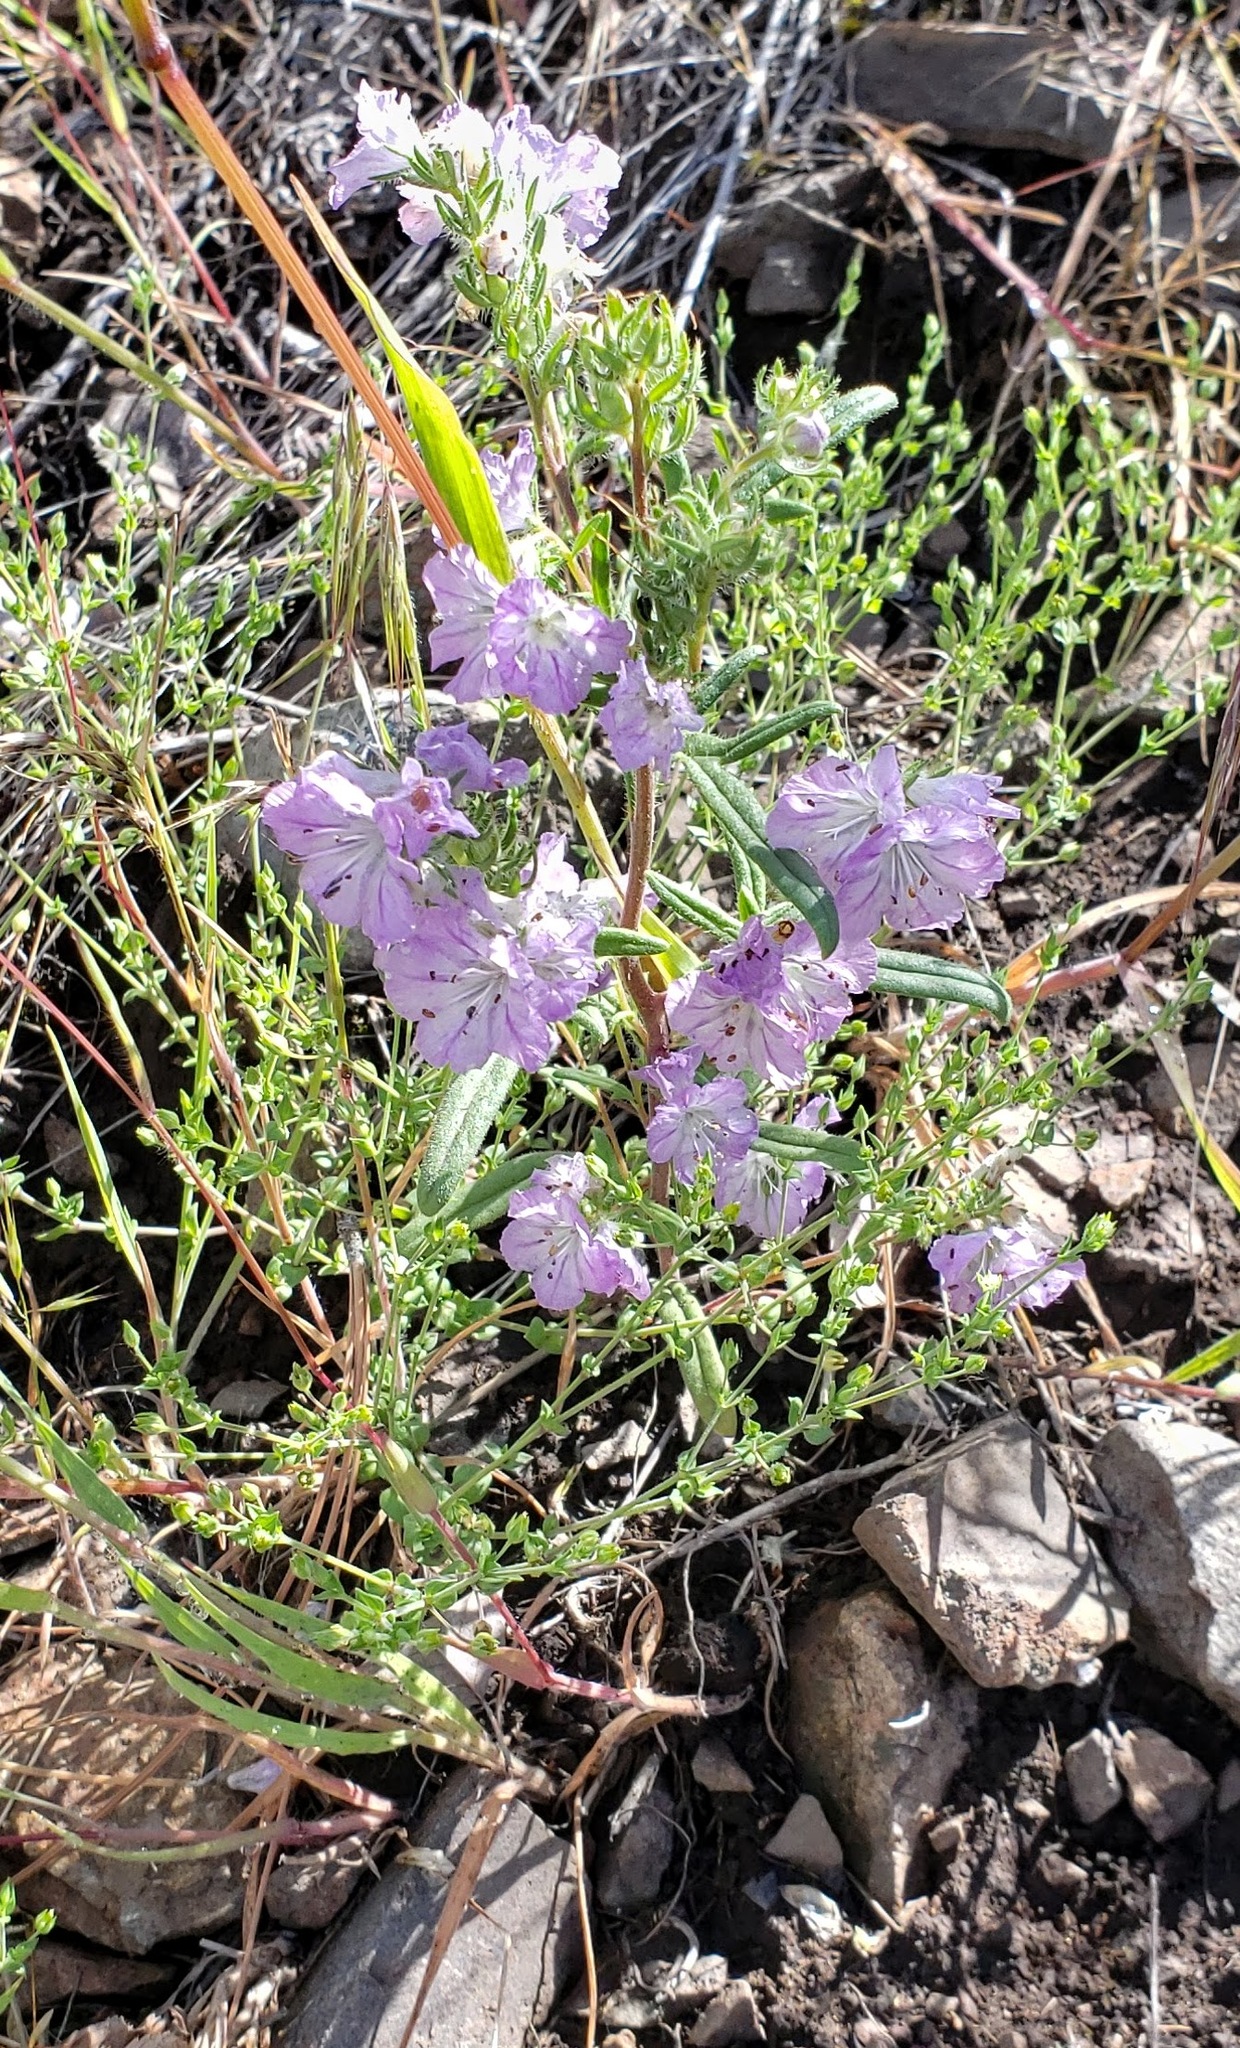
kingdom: Plantae
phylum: Tracheophyta
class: Magnoliopsida
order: Boraginales
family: Hydrophyllaceae
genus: Phacelia
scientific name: Phacelia linearis
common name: Linear-leaved phacelia
